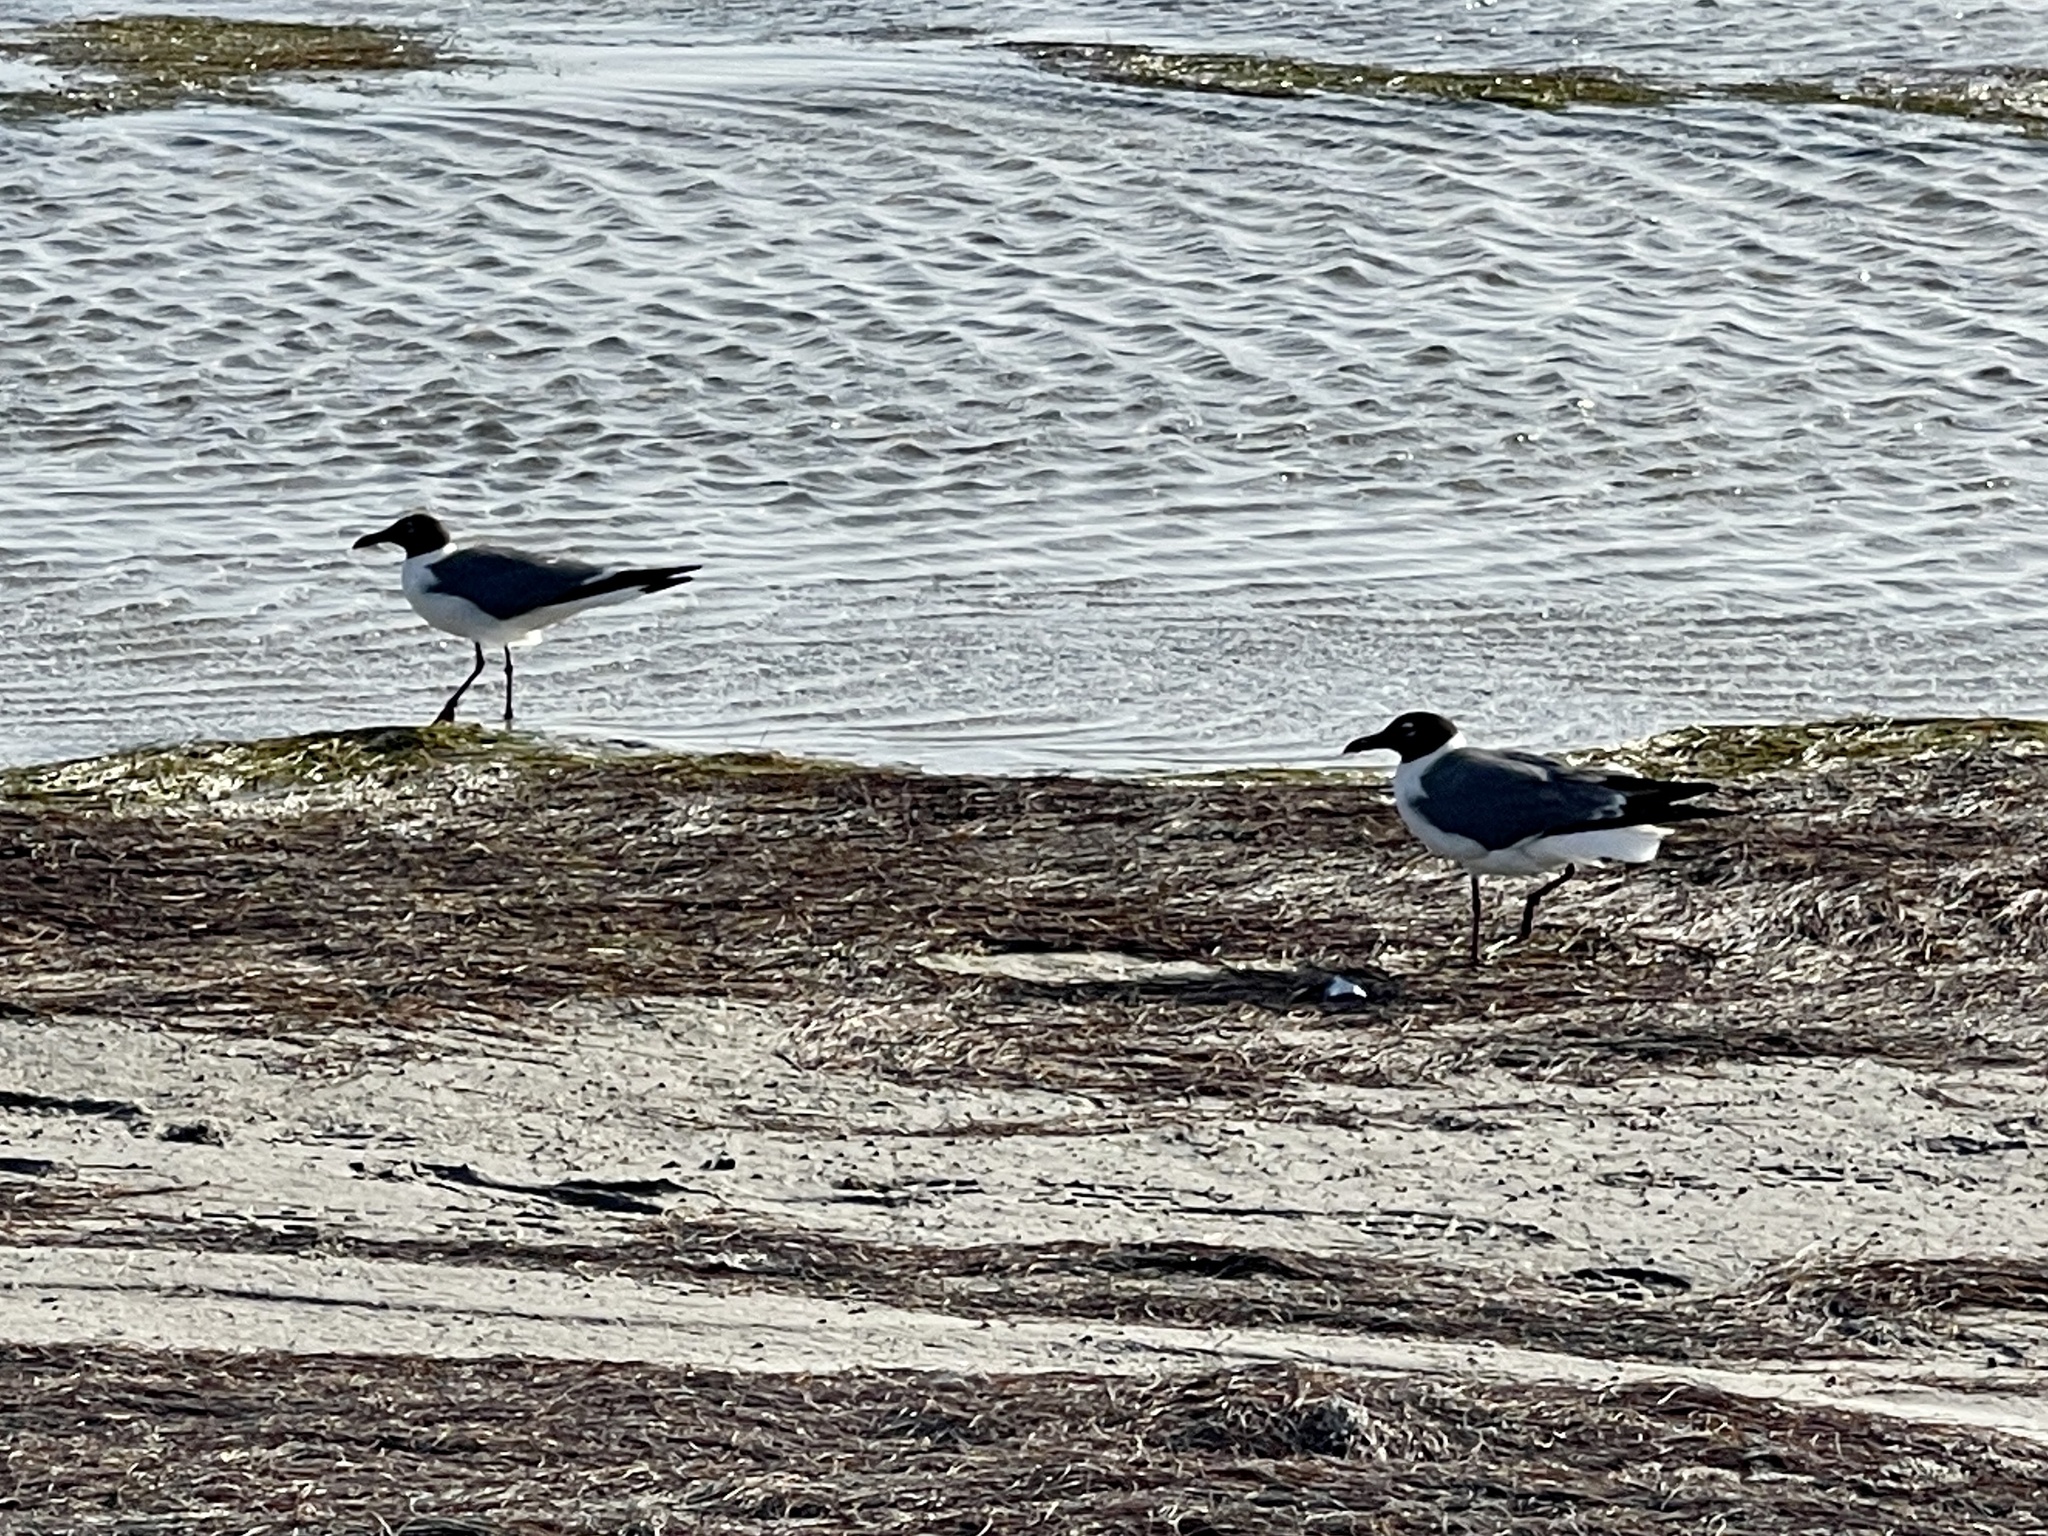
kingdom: Animalia
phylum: Chordata
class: Aves
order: Charadriiformes
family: Laridae
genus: Leucophaeus
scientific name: Leucophaeus atricilla
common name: Laughing gull
